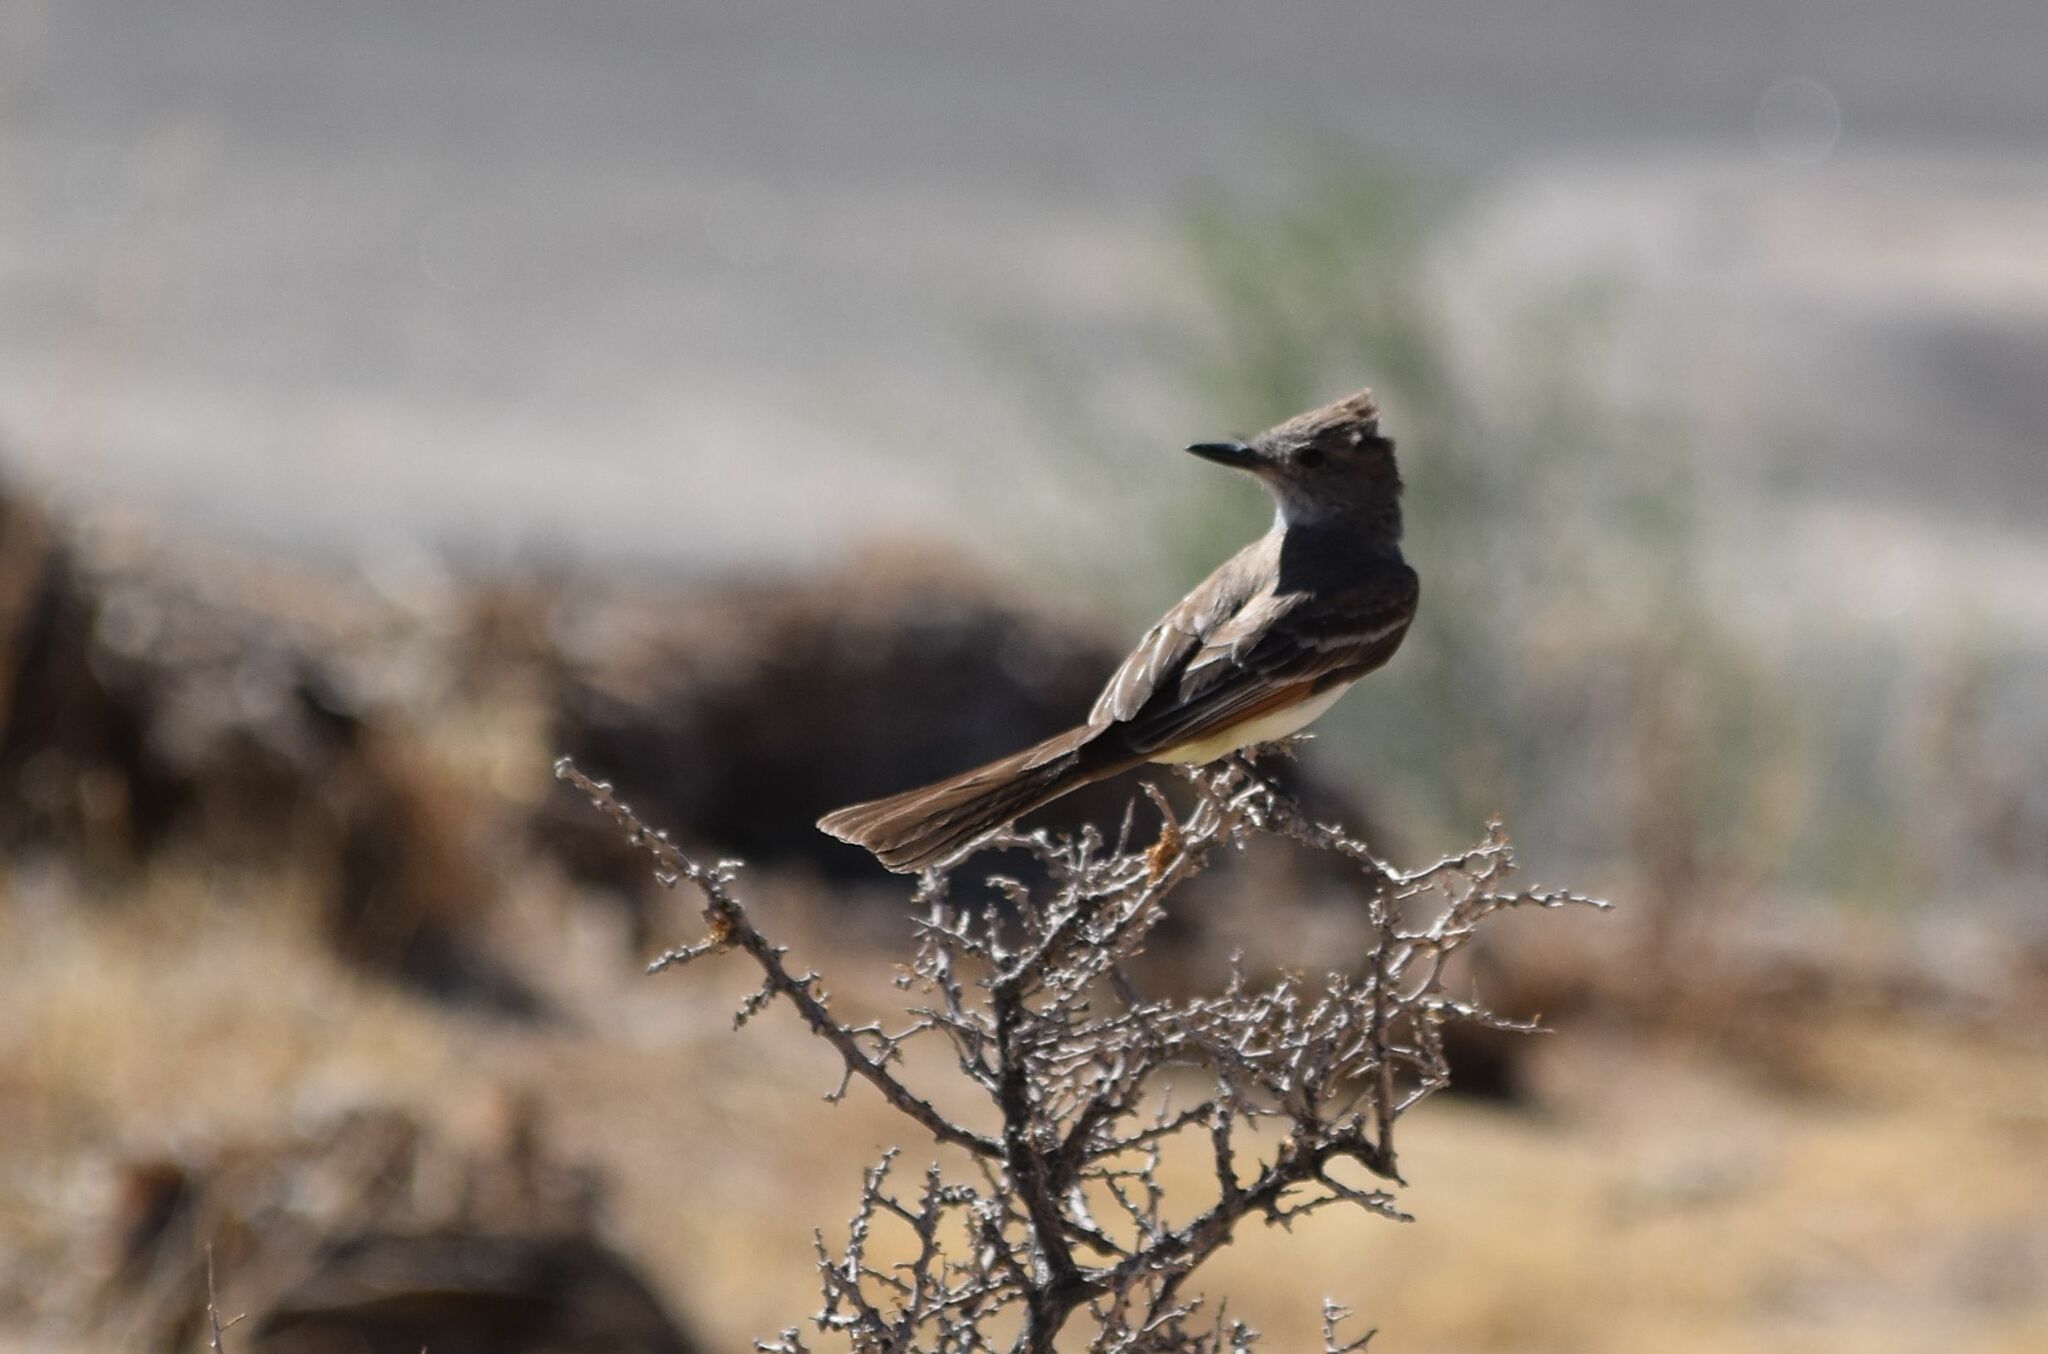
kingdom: Animalia
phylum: Chordata
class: Aves
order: Passeriformes
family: Tyrannidae
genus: Myiarchus
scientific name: Myiarchus cinerascens
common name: Ash-throated flycatcher
